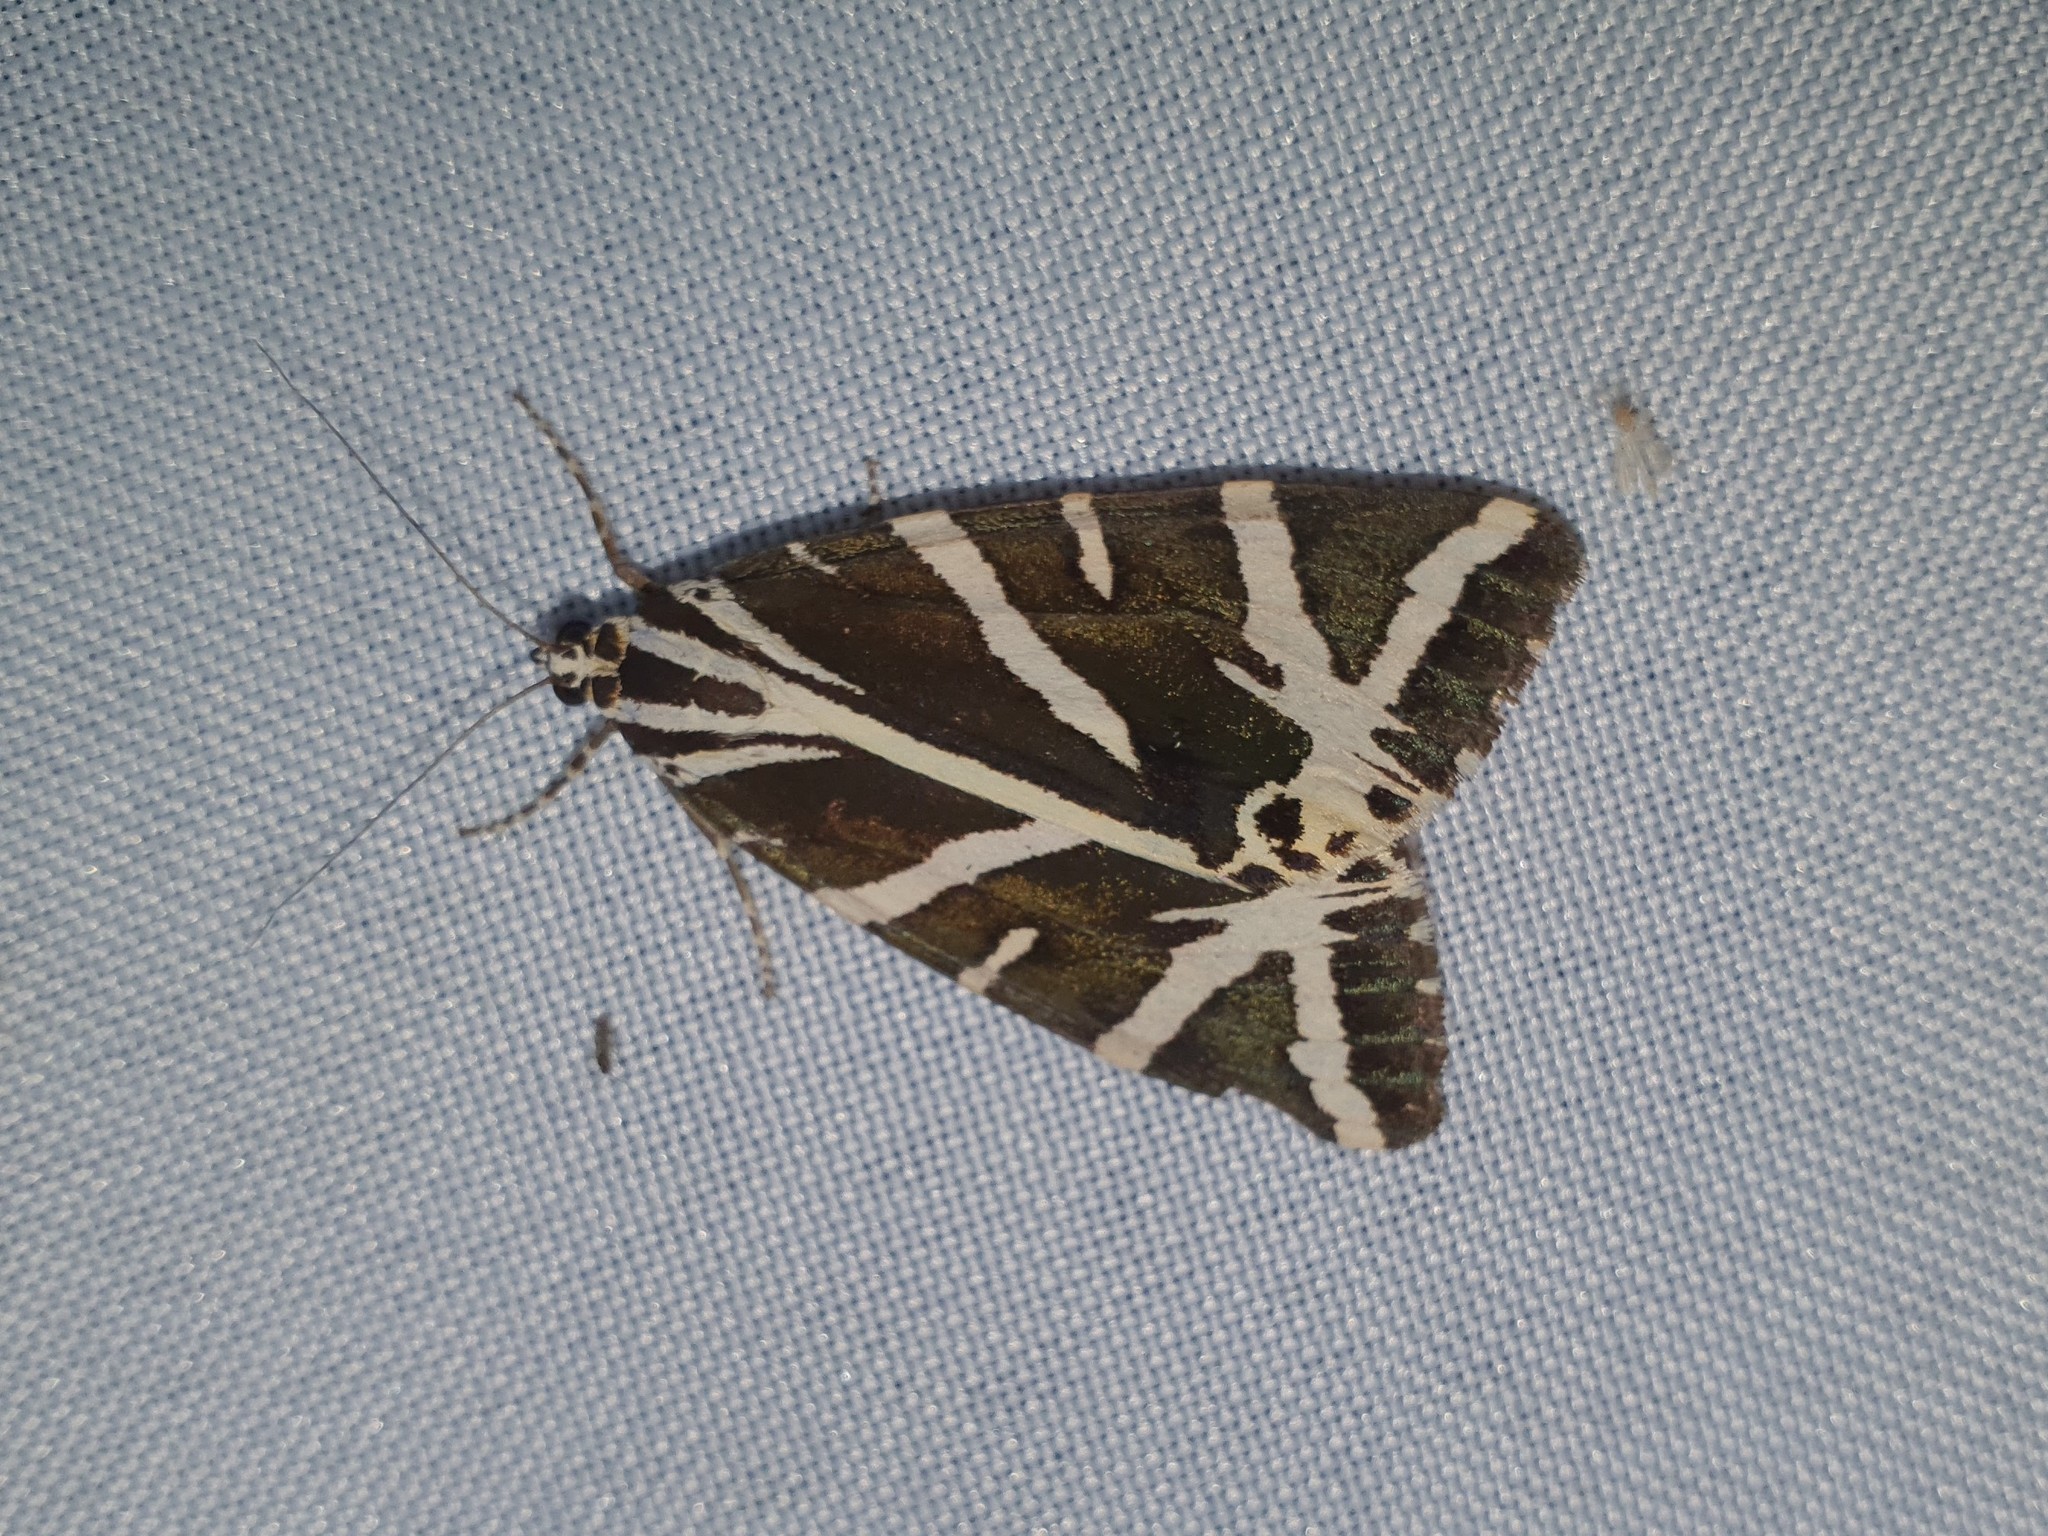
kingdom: Animalia
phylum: Arthropoda
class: Insecta
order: Lepidoptera
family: Erebidae
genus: Euplagia
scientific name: Euplagia quadripunctaria
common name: Jersey tiger
